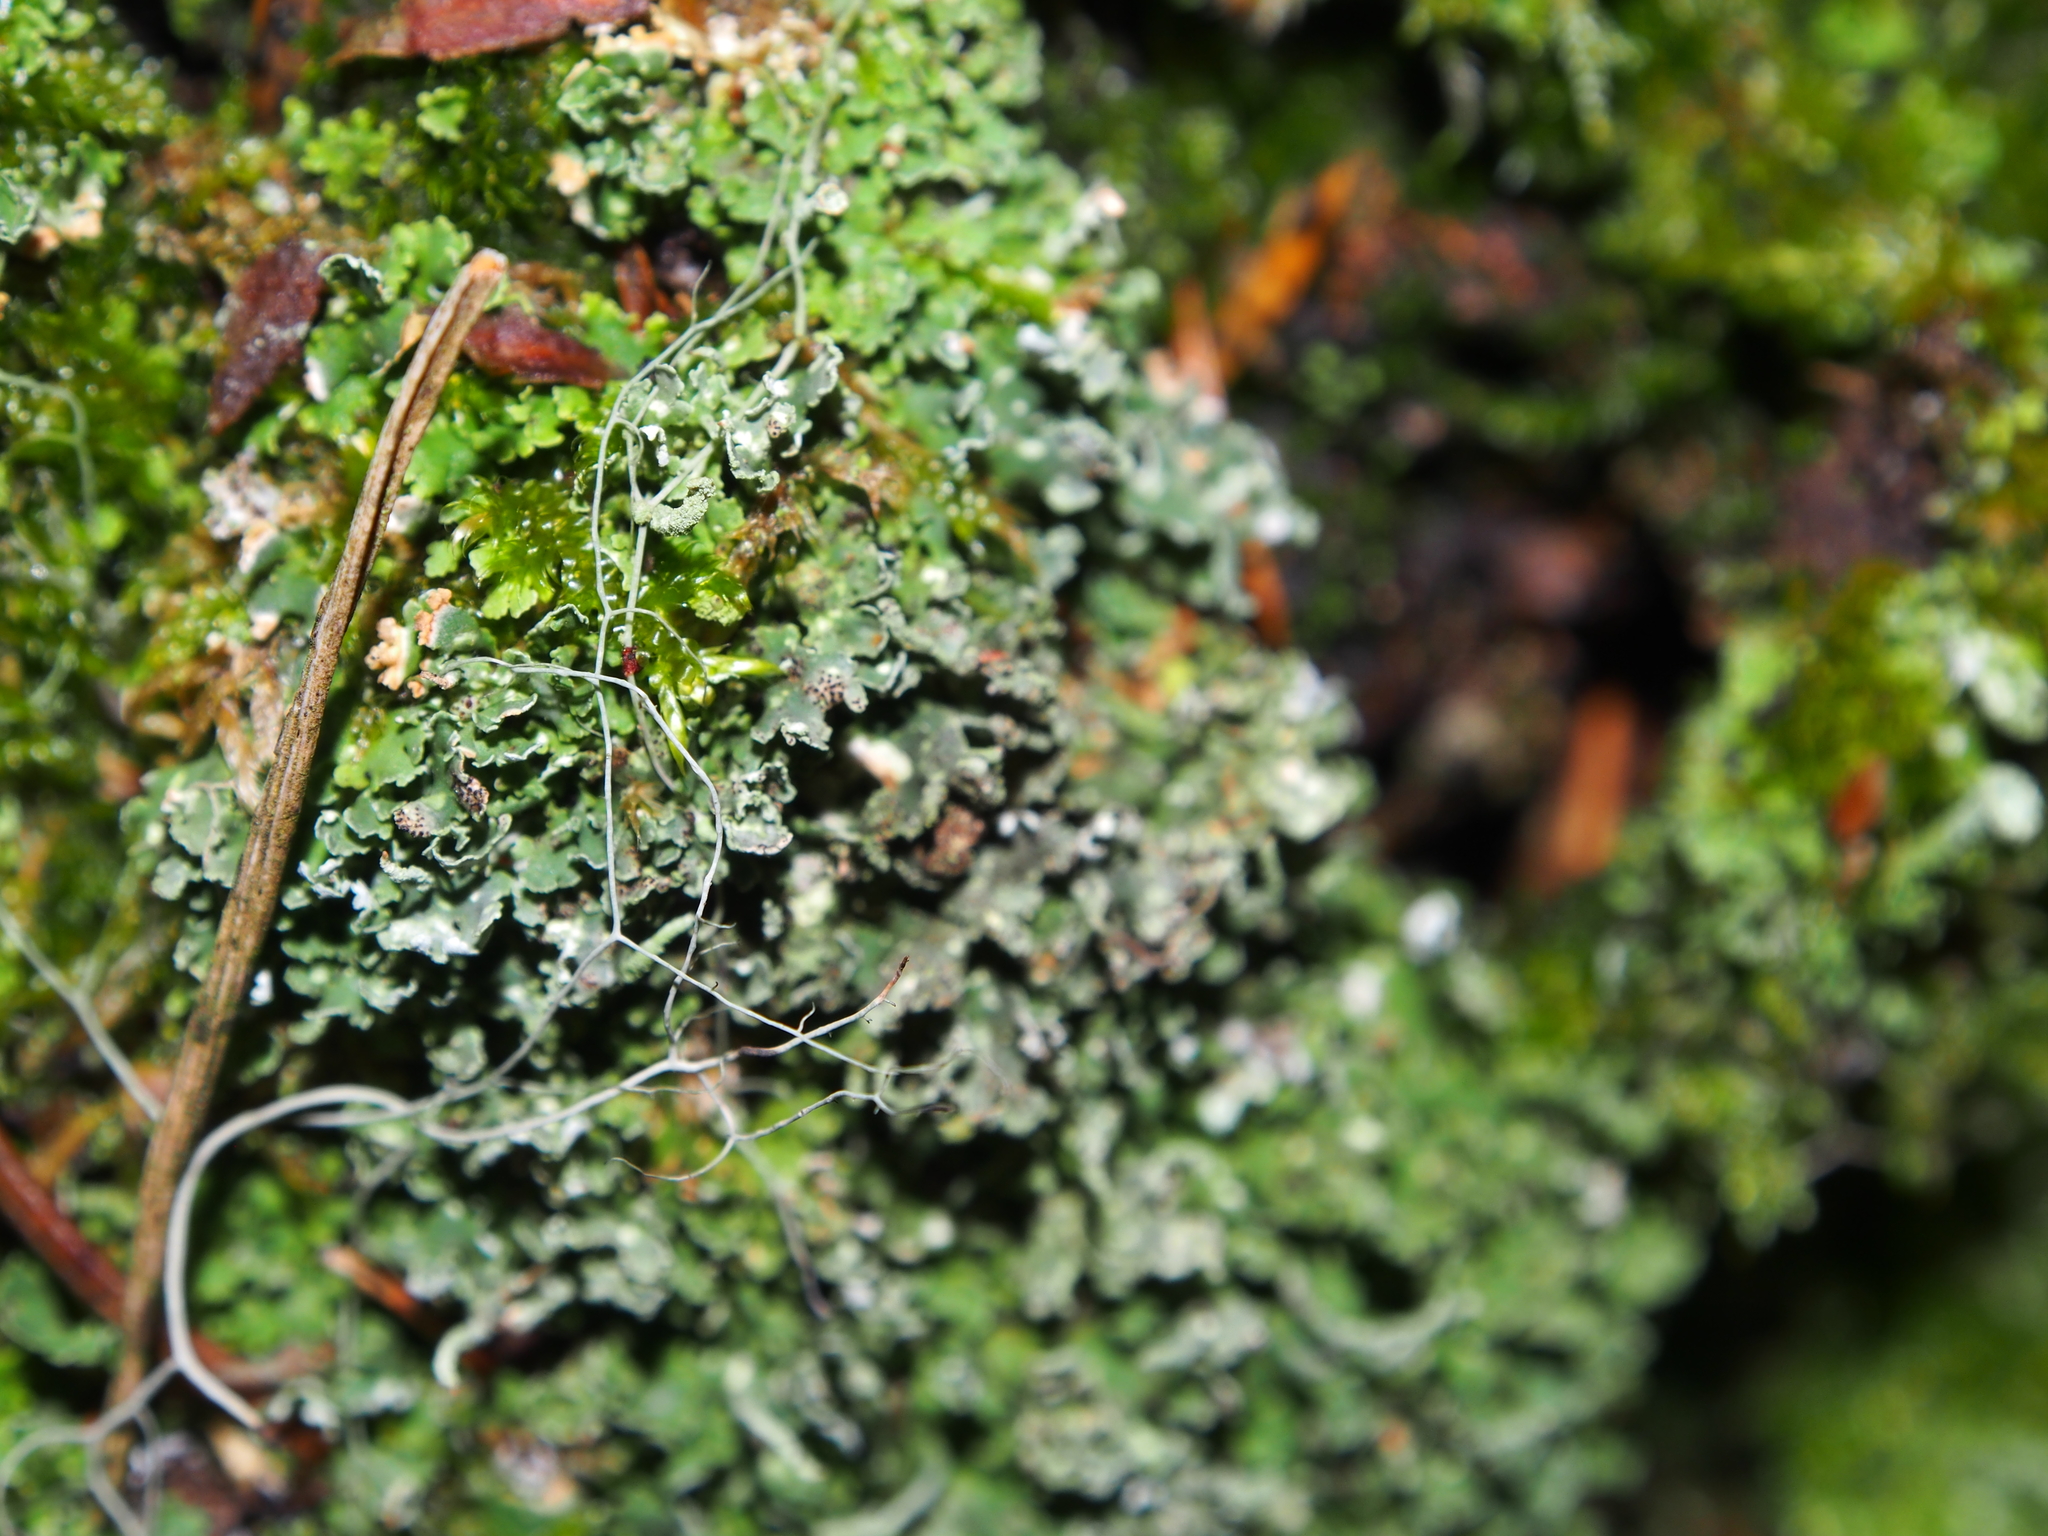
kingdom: Fungi
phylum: Ascomycota
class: Lecanoromycetes
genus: Bachmanniomyces
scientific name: Bachmanniomyces punctum
